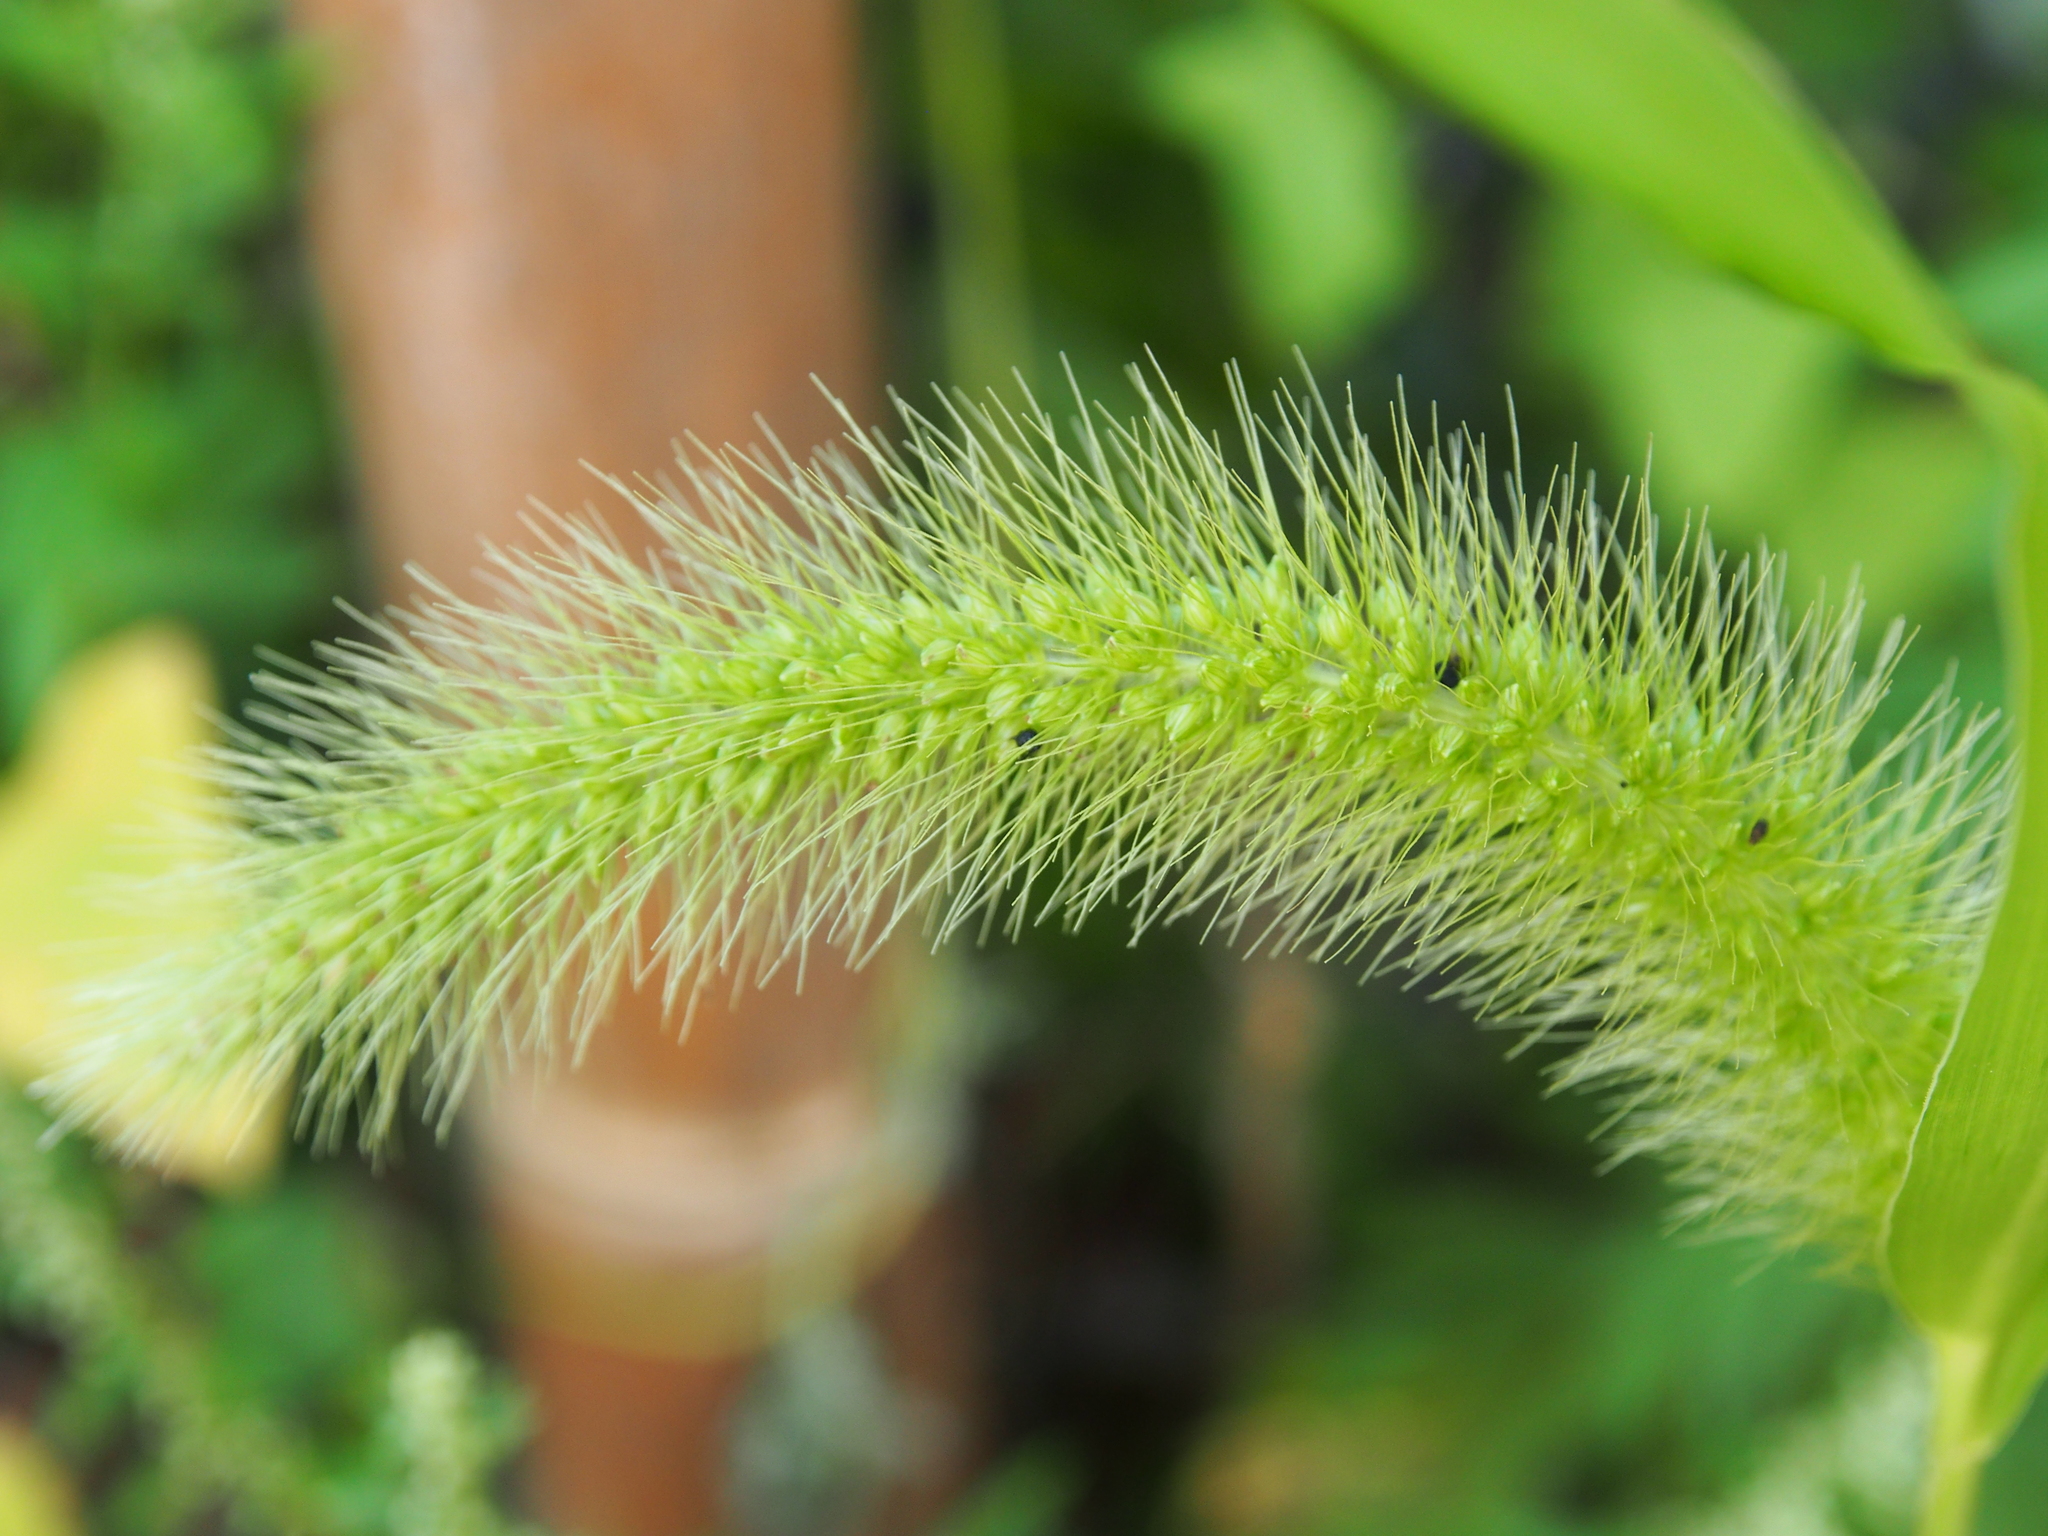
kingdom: Plantae
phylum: Tracheophyta
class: Liliopsida
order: Poales
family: Poaceae
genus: Setaria
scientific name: Setaria faberi
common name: Nodding bristle-grass
